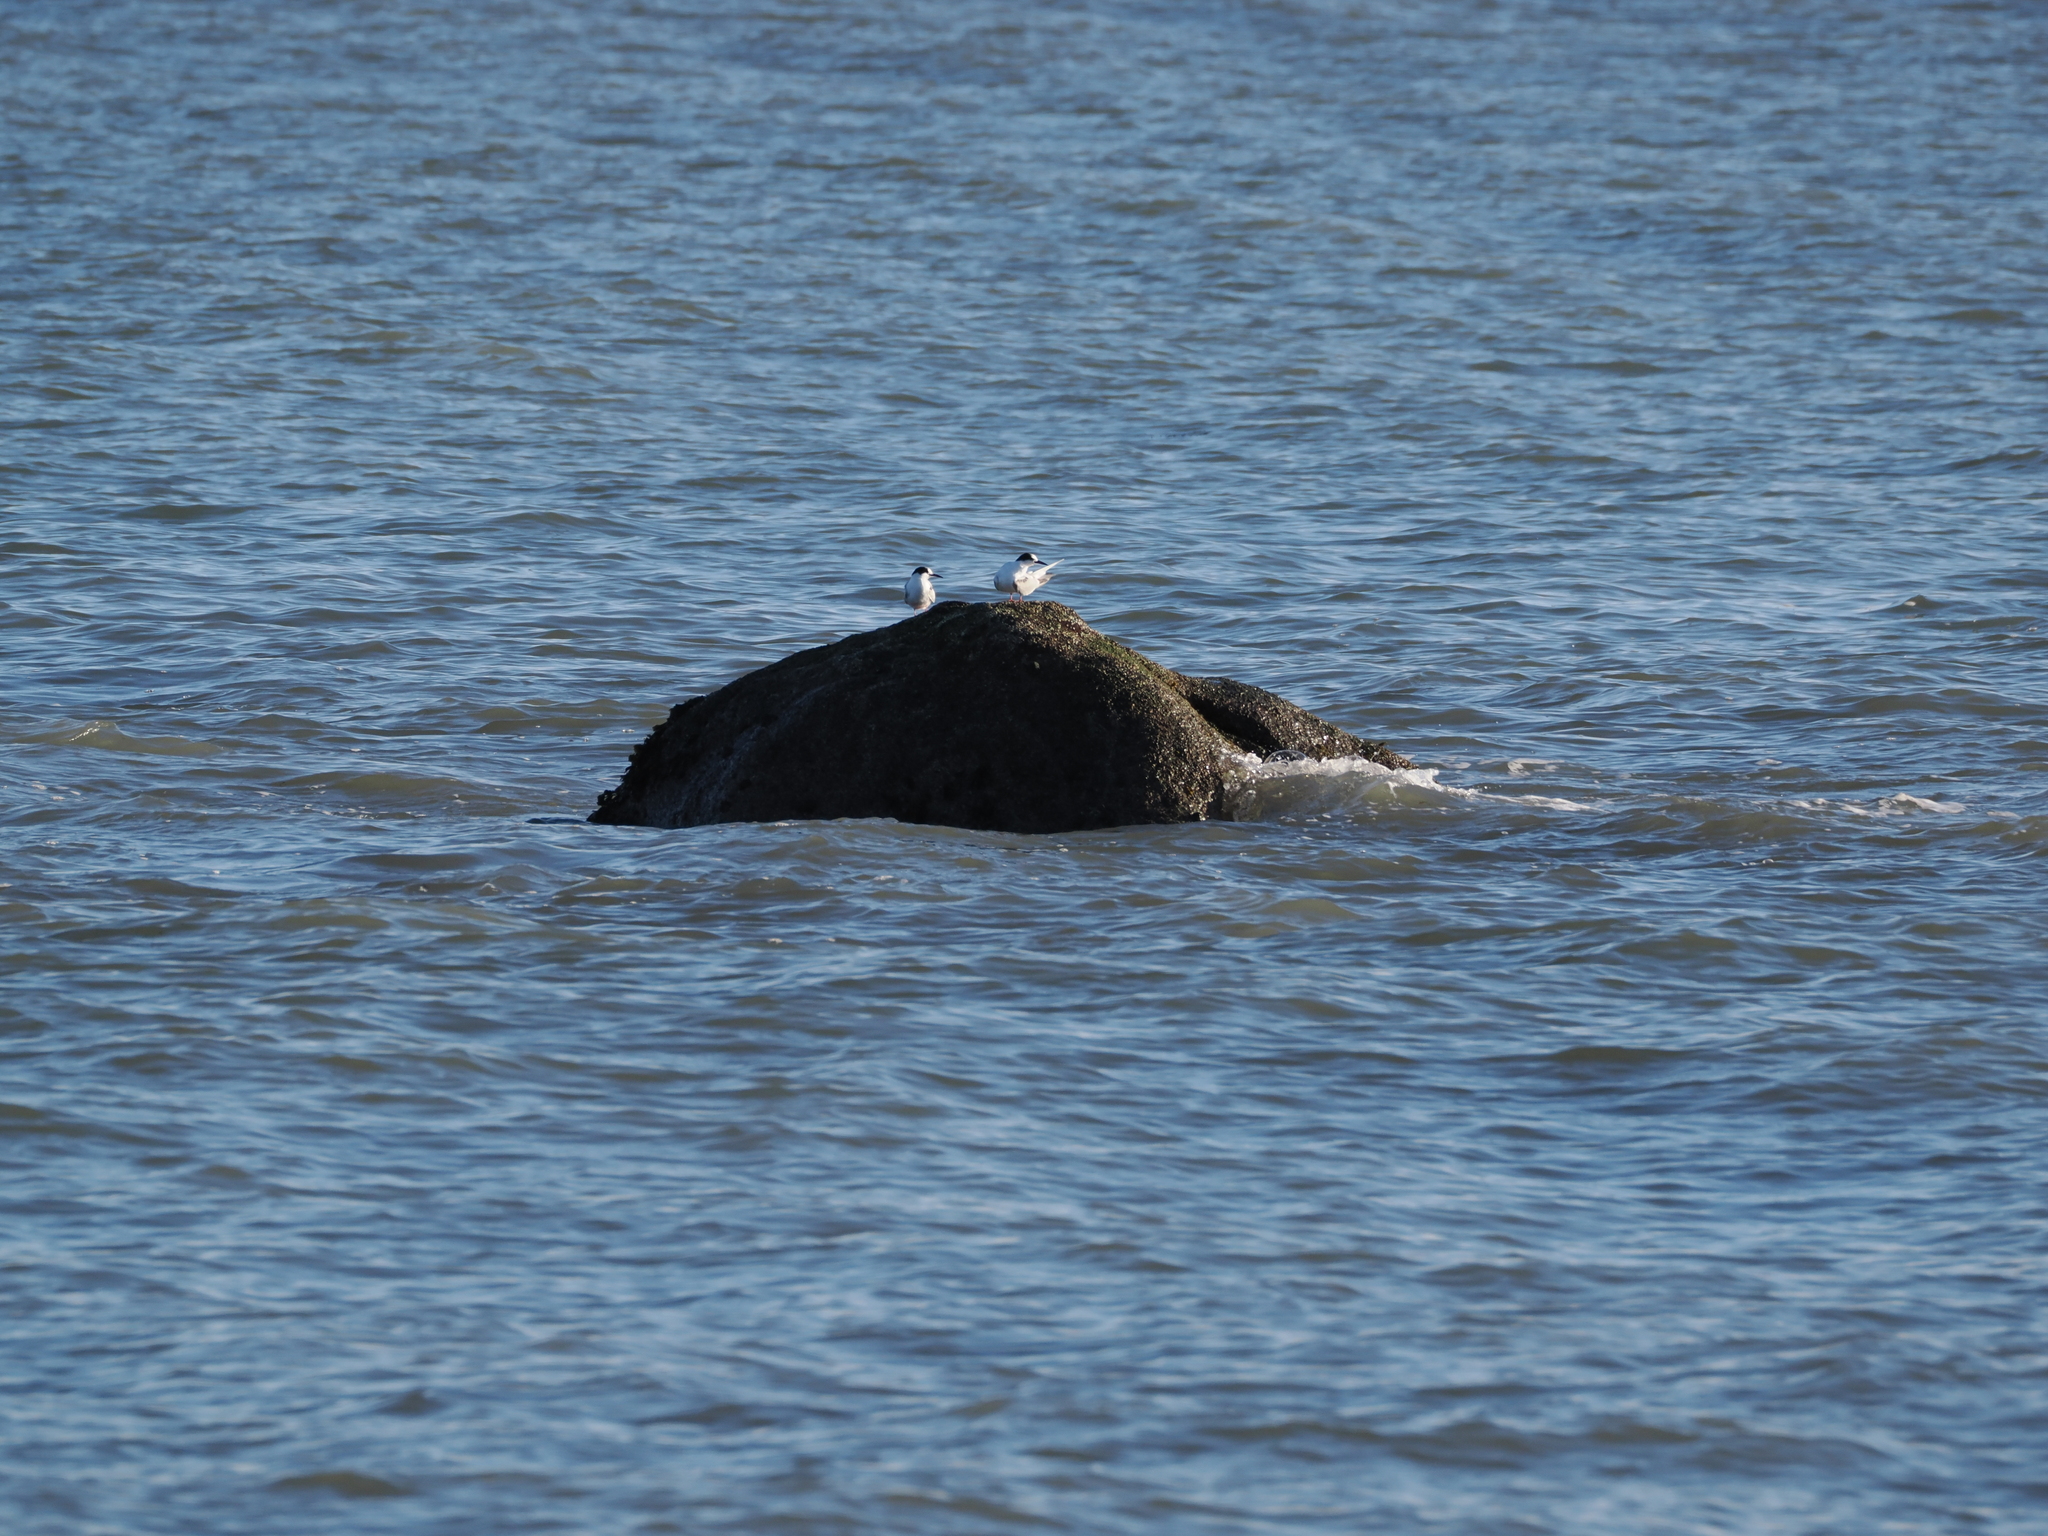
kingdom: Animalia
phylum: Chordata
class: Aves
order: Charadriiformes
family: Laridae
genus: Sterna
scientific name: Sterna paradisaea
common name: Arctic tern
